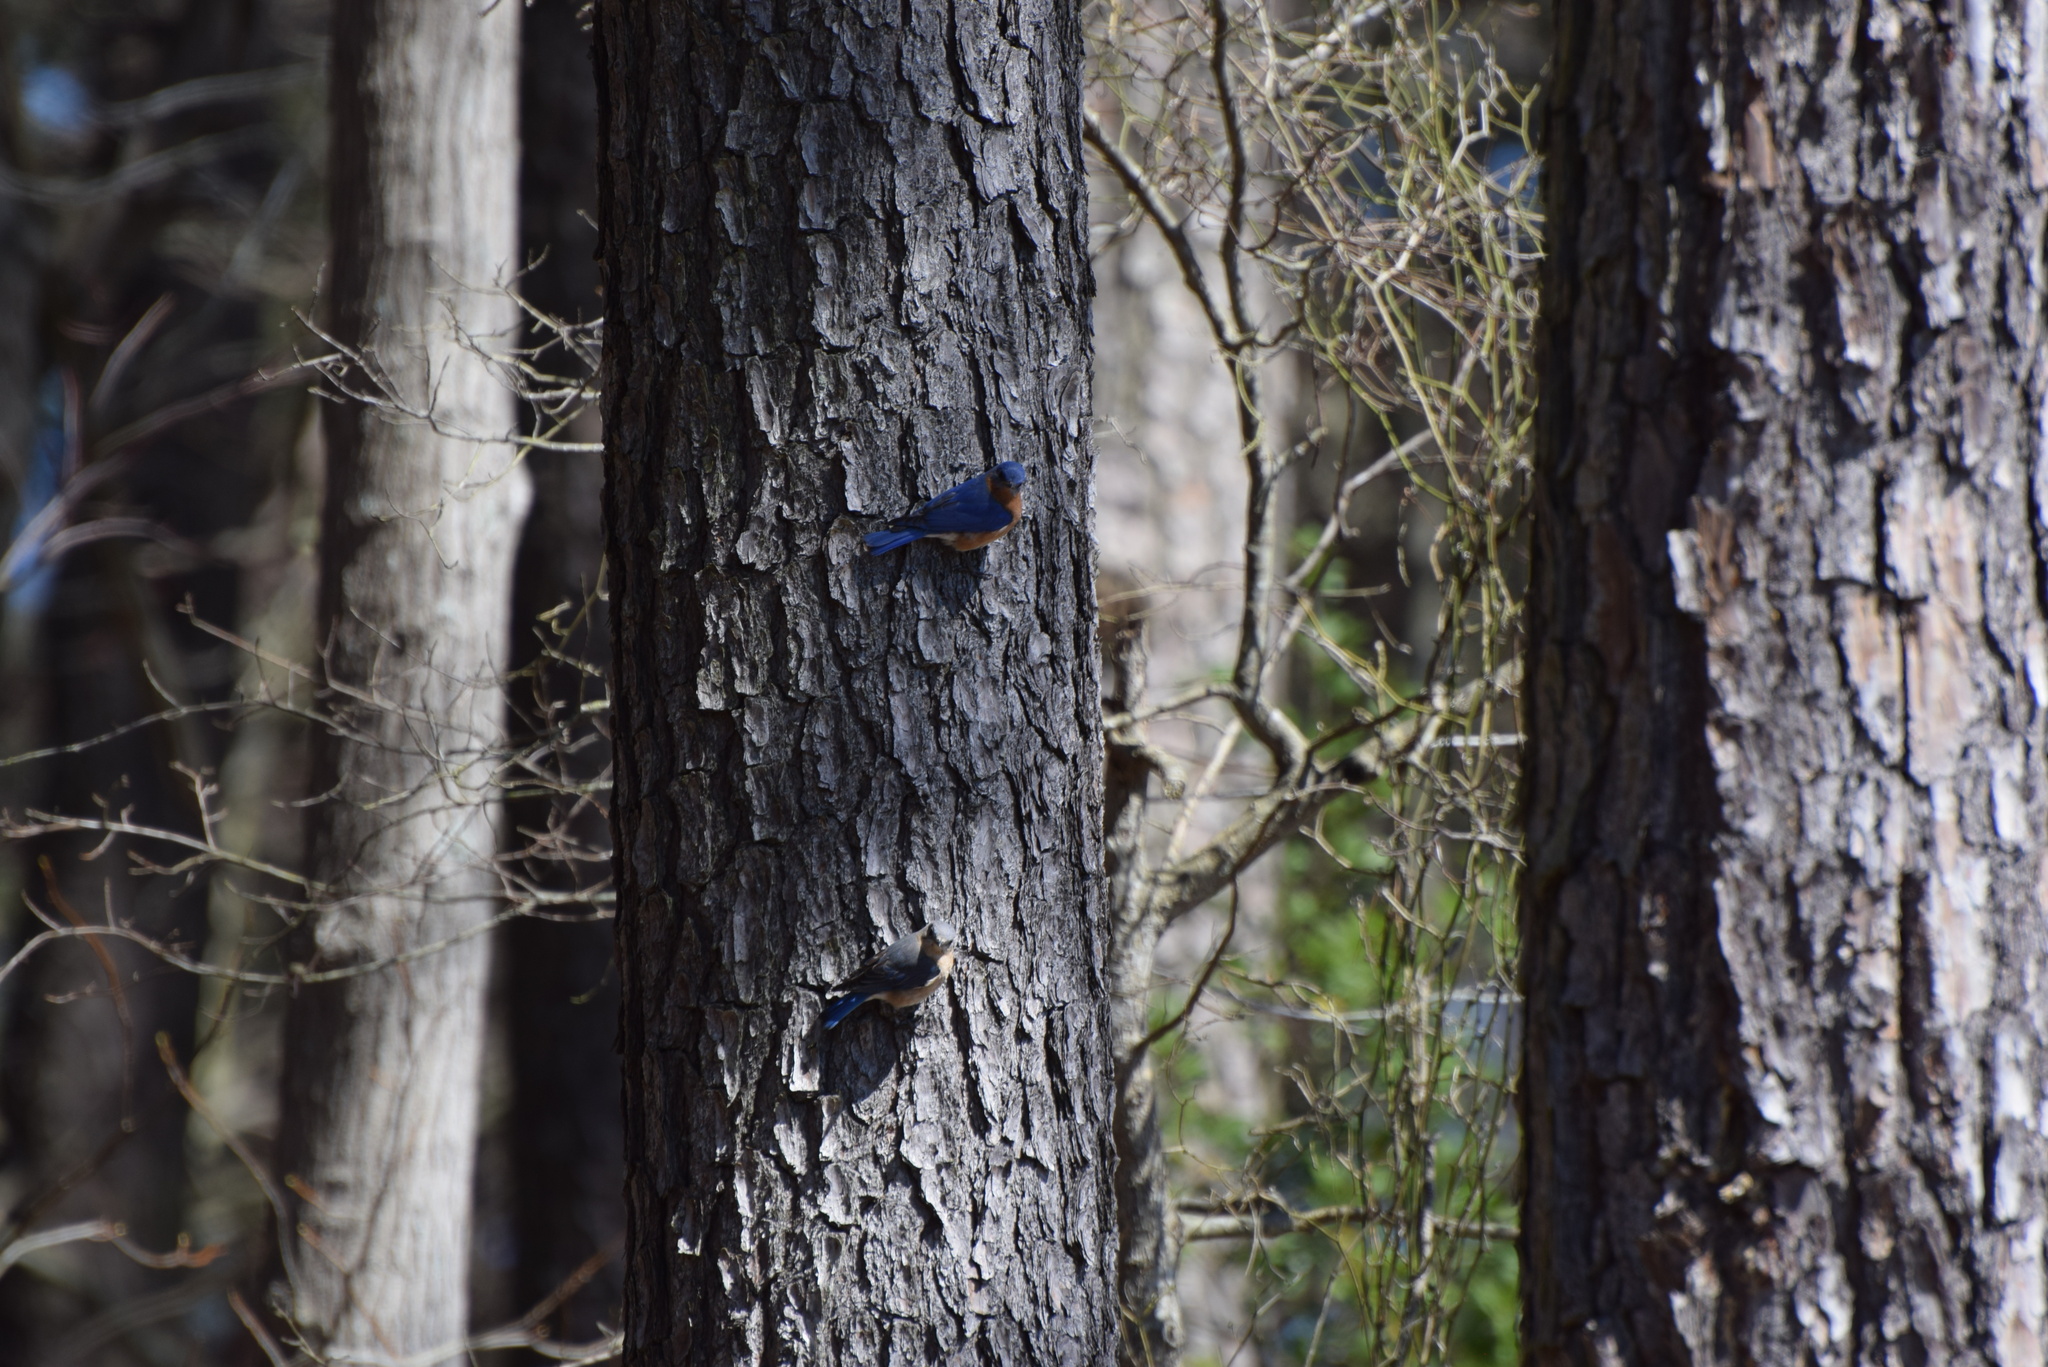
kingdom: Animalia
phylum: Chordata
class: Aves
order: Passeriformes
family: Turdidae
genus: Sialia
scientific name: Sialia sialis
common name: Eastern bluebird
